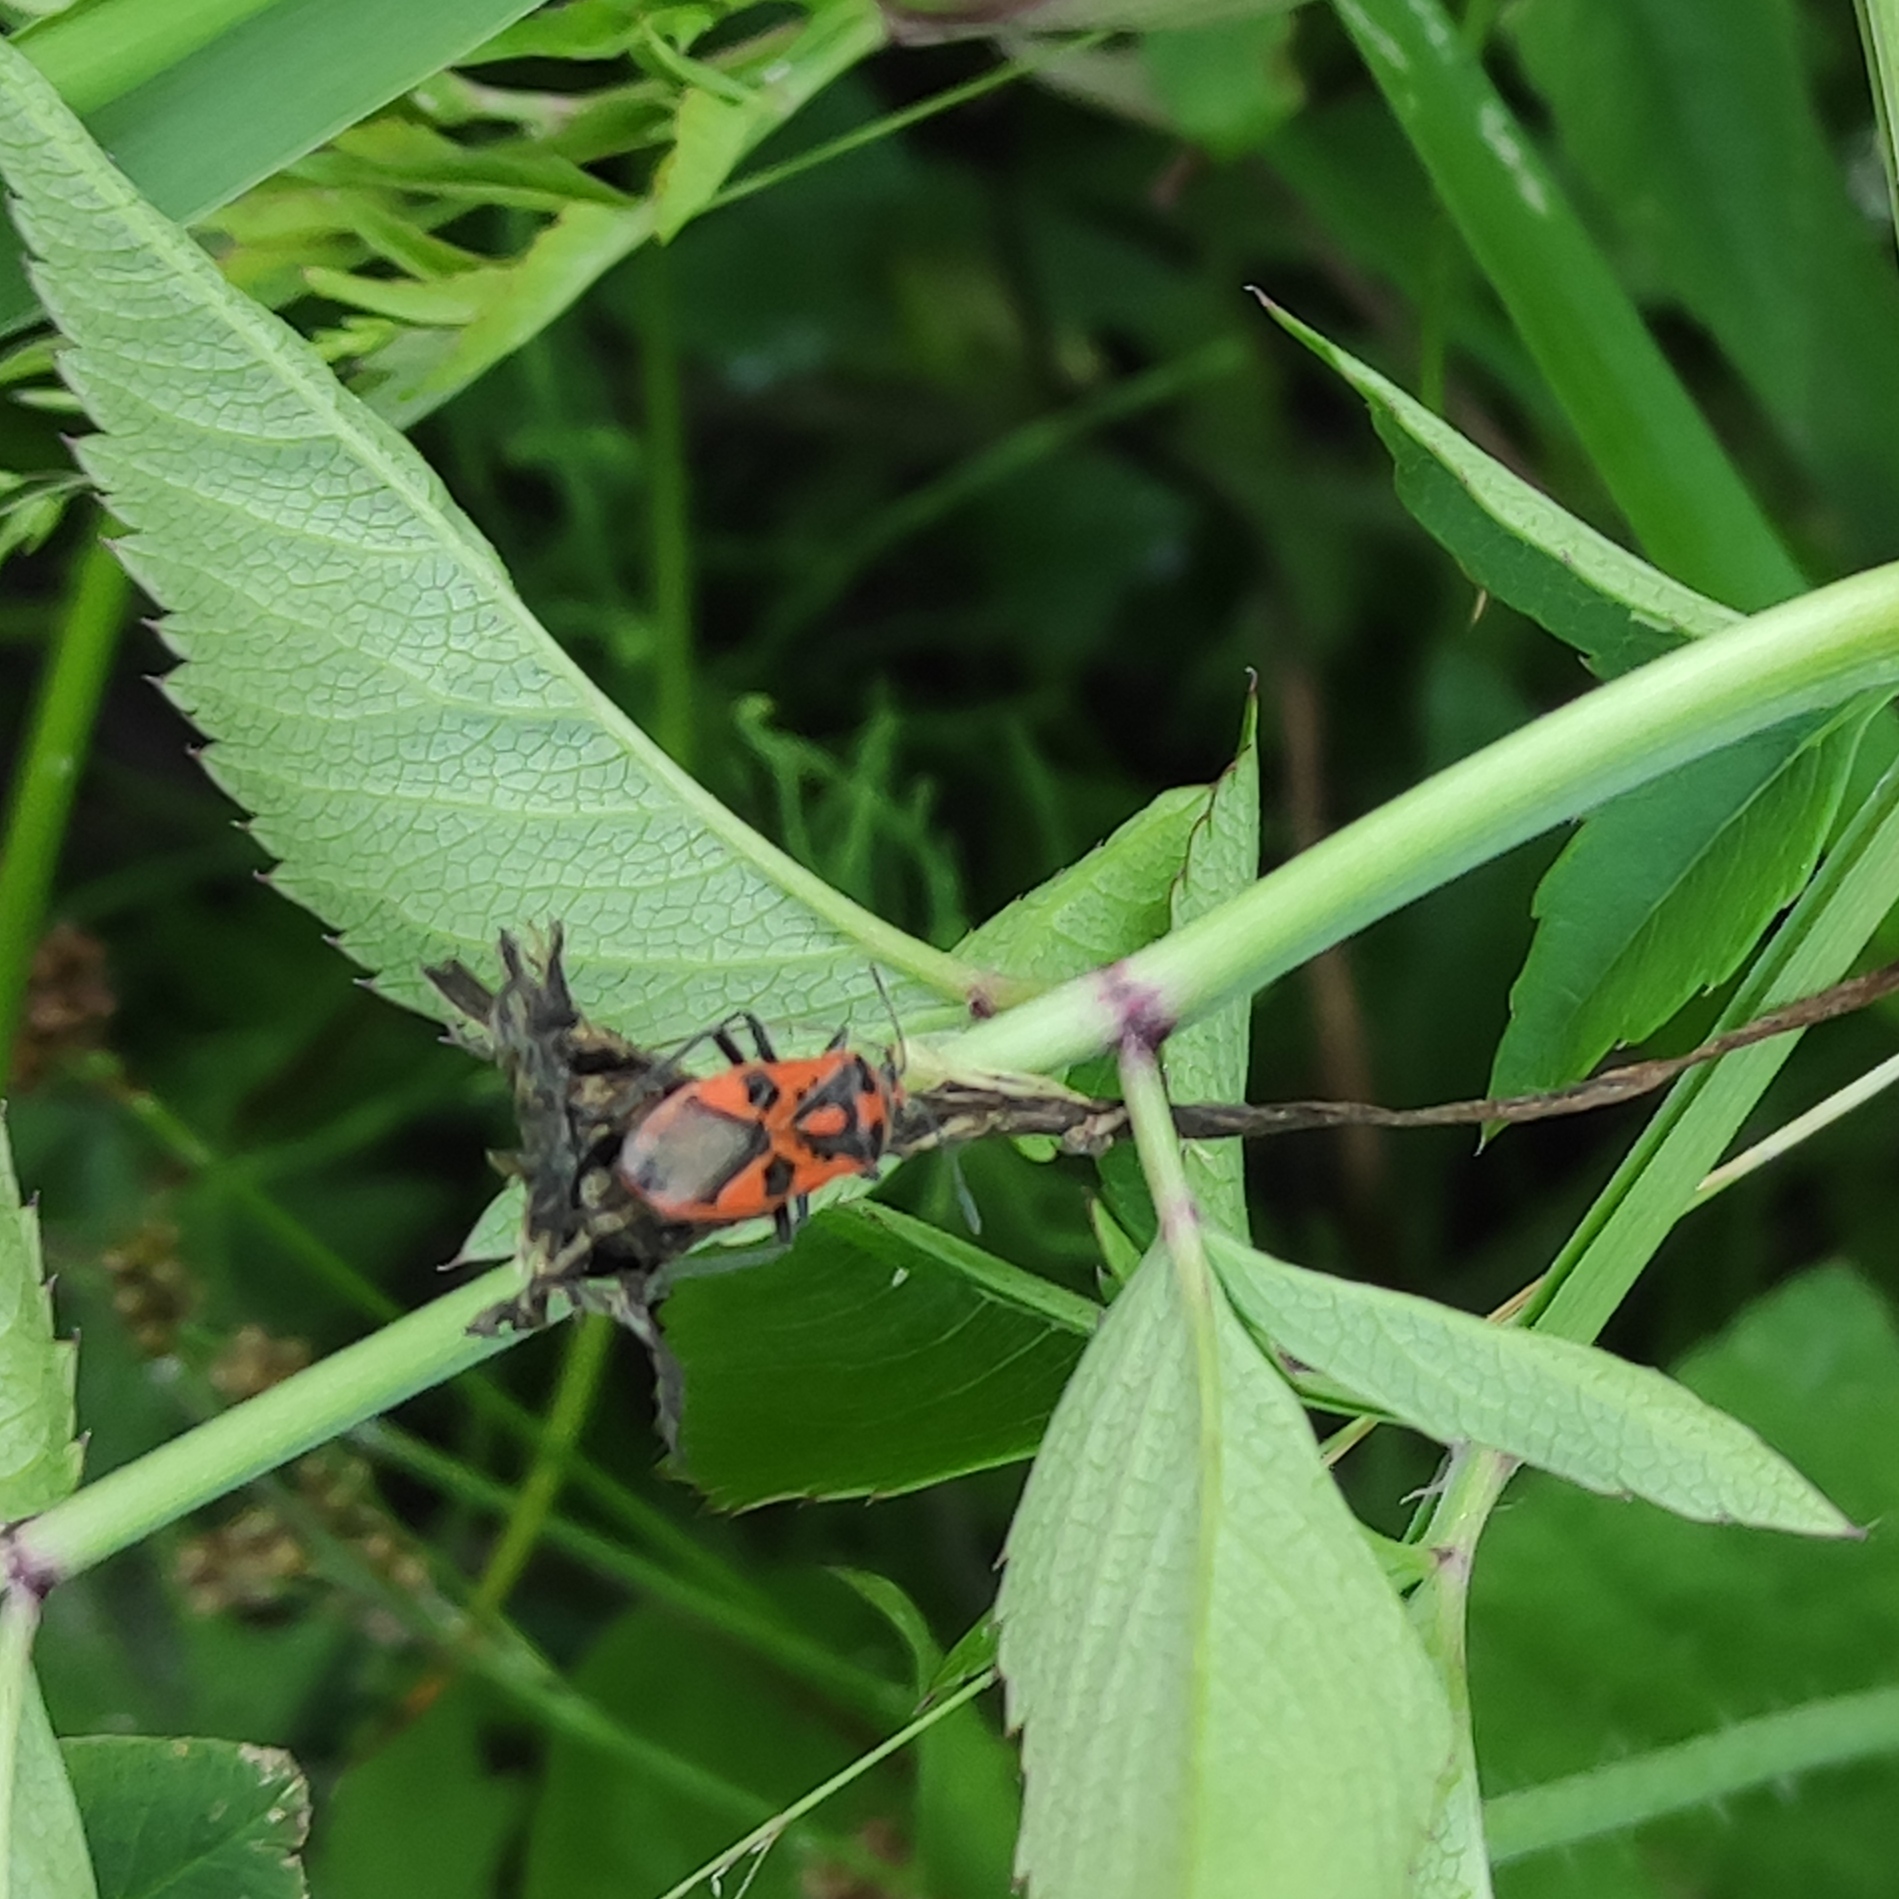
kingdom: Animalia
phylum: Arthropoda
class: Insecta
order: Hemiptera
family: Rhopalidae
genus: Corizus
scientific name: Corizus hyoscyami
